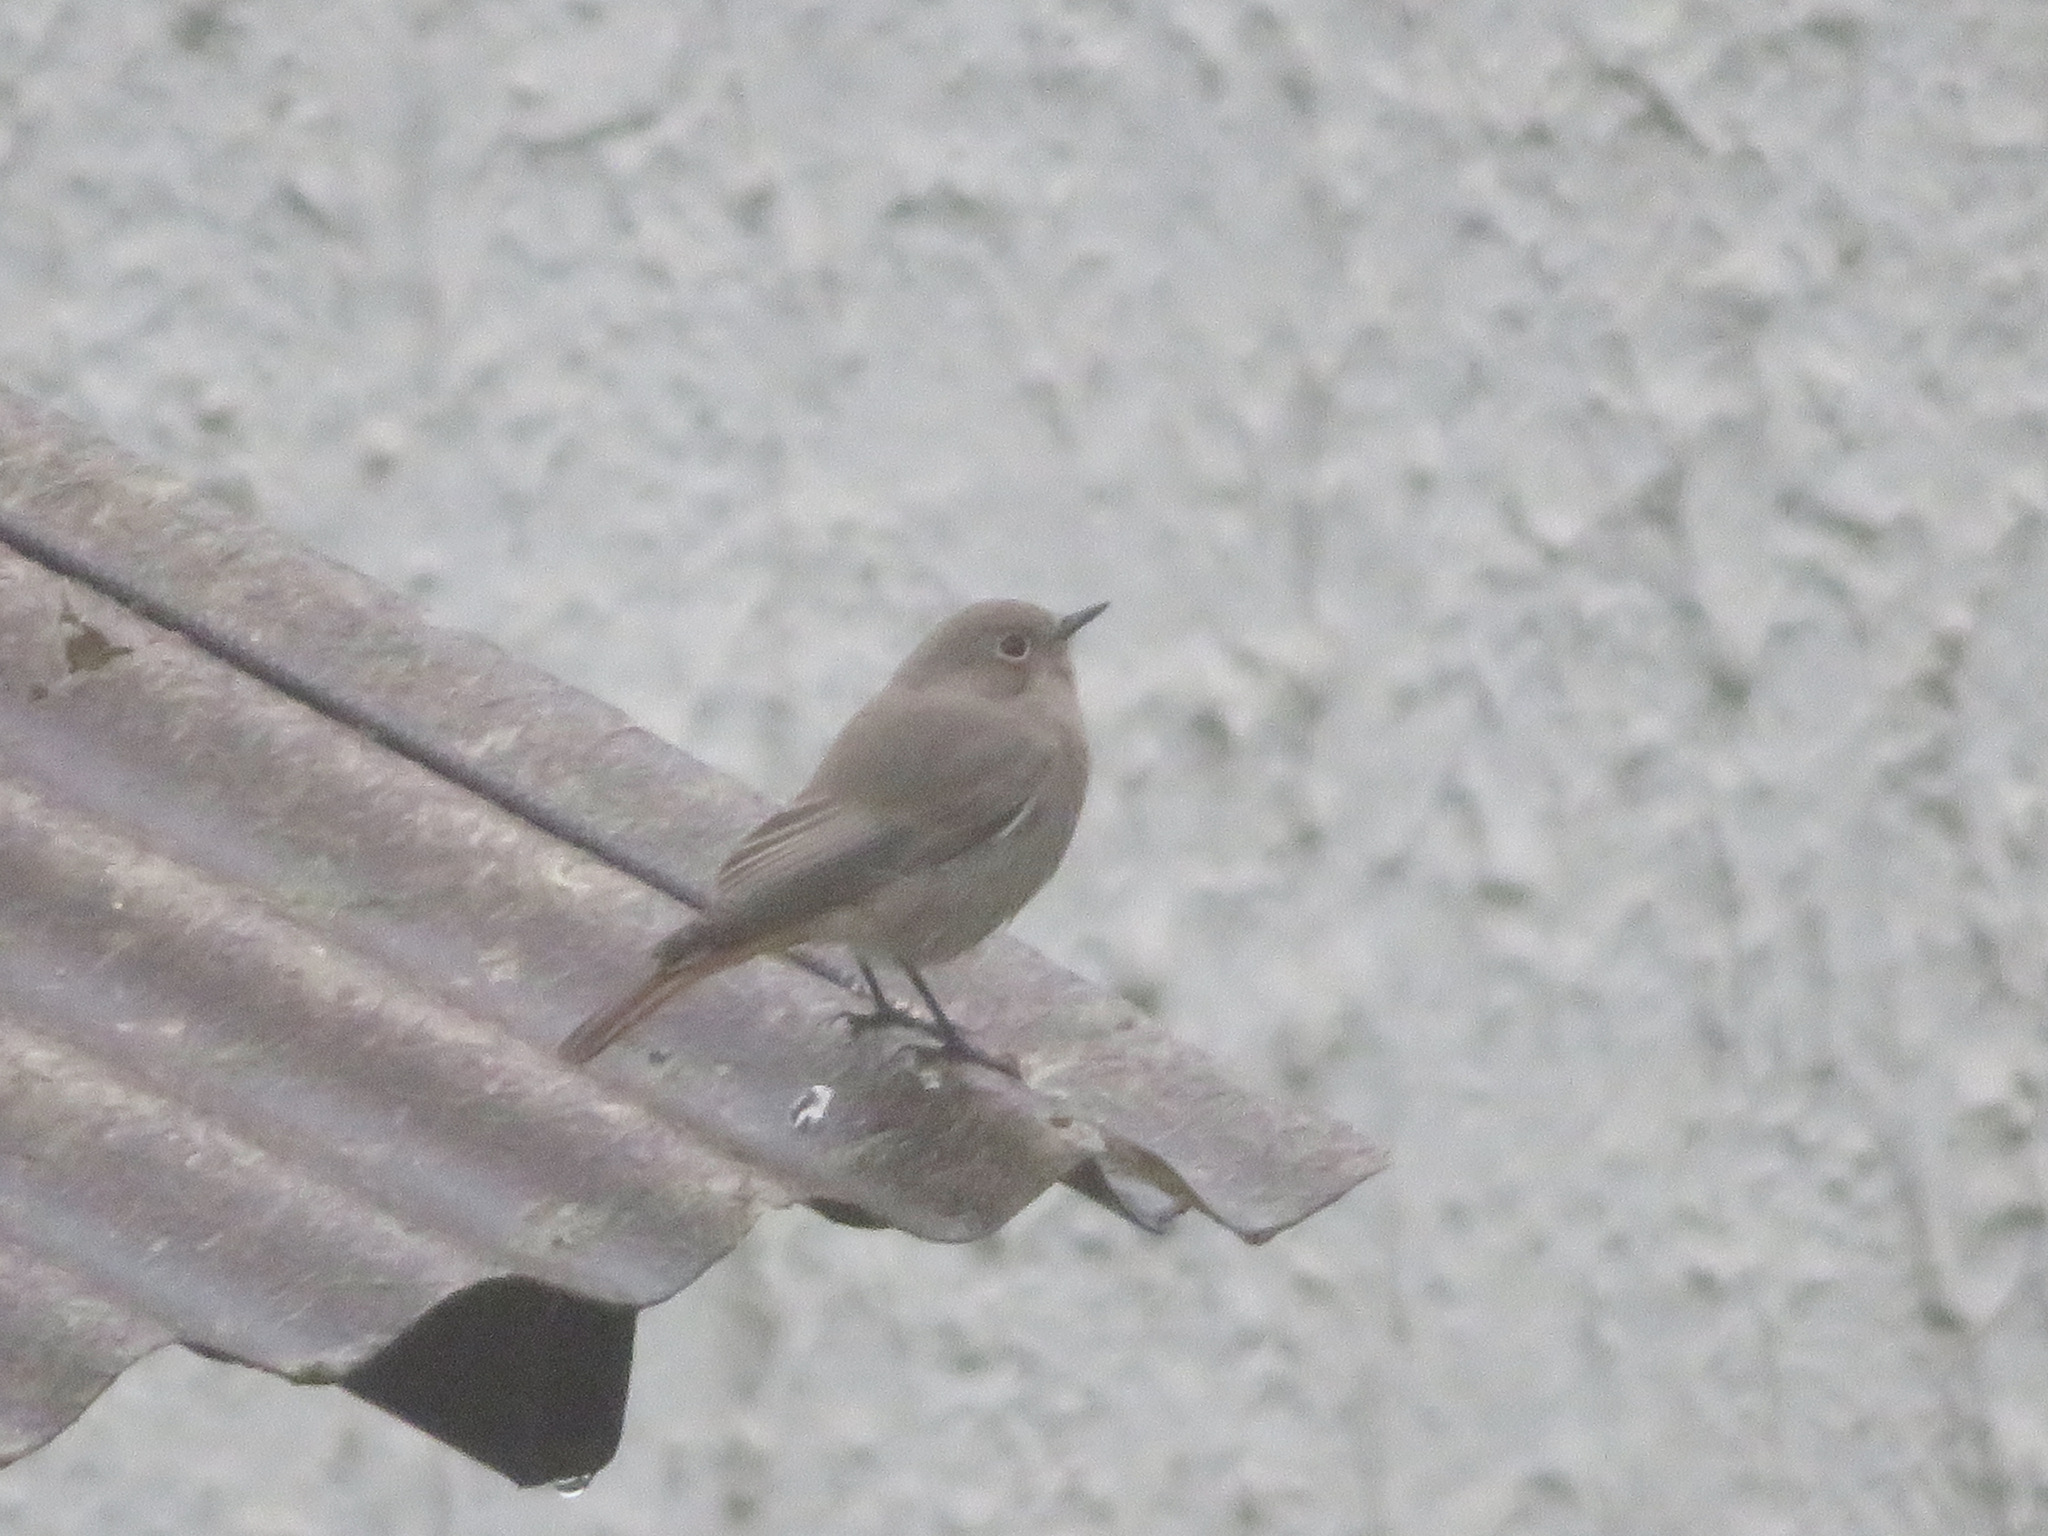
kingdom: Animalia
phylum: Chordata
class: Aves
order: Passeriformes
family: Muscicapidae
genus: Phoenicurus
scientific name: Phoenicurus ochruros
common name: Black redstart
